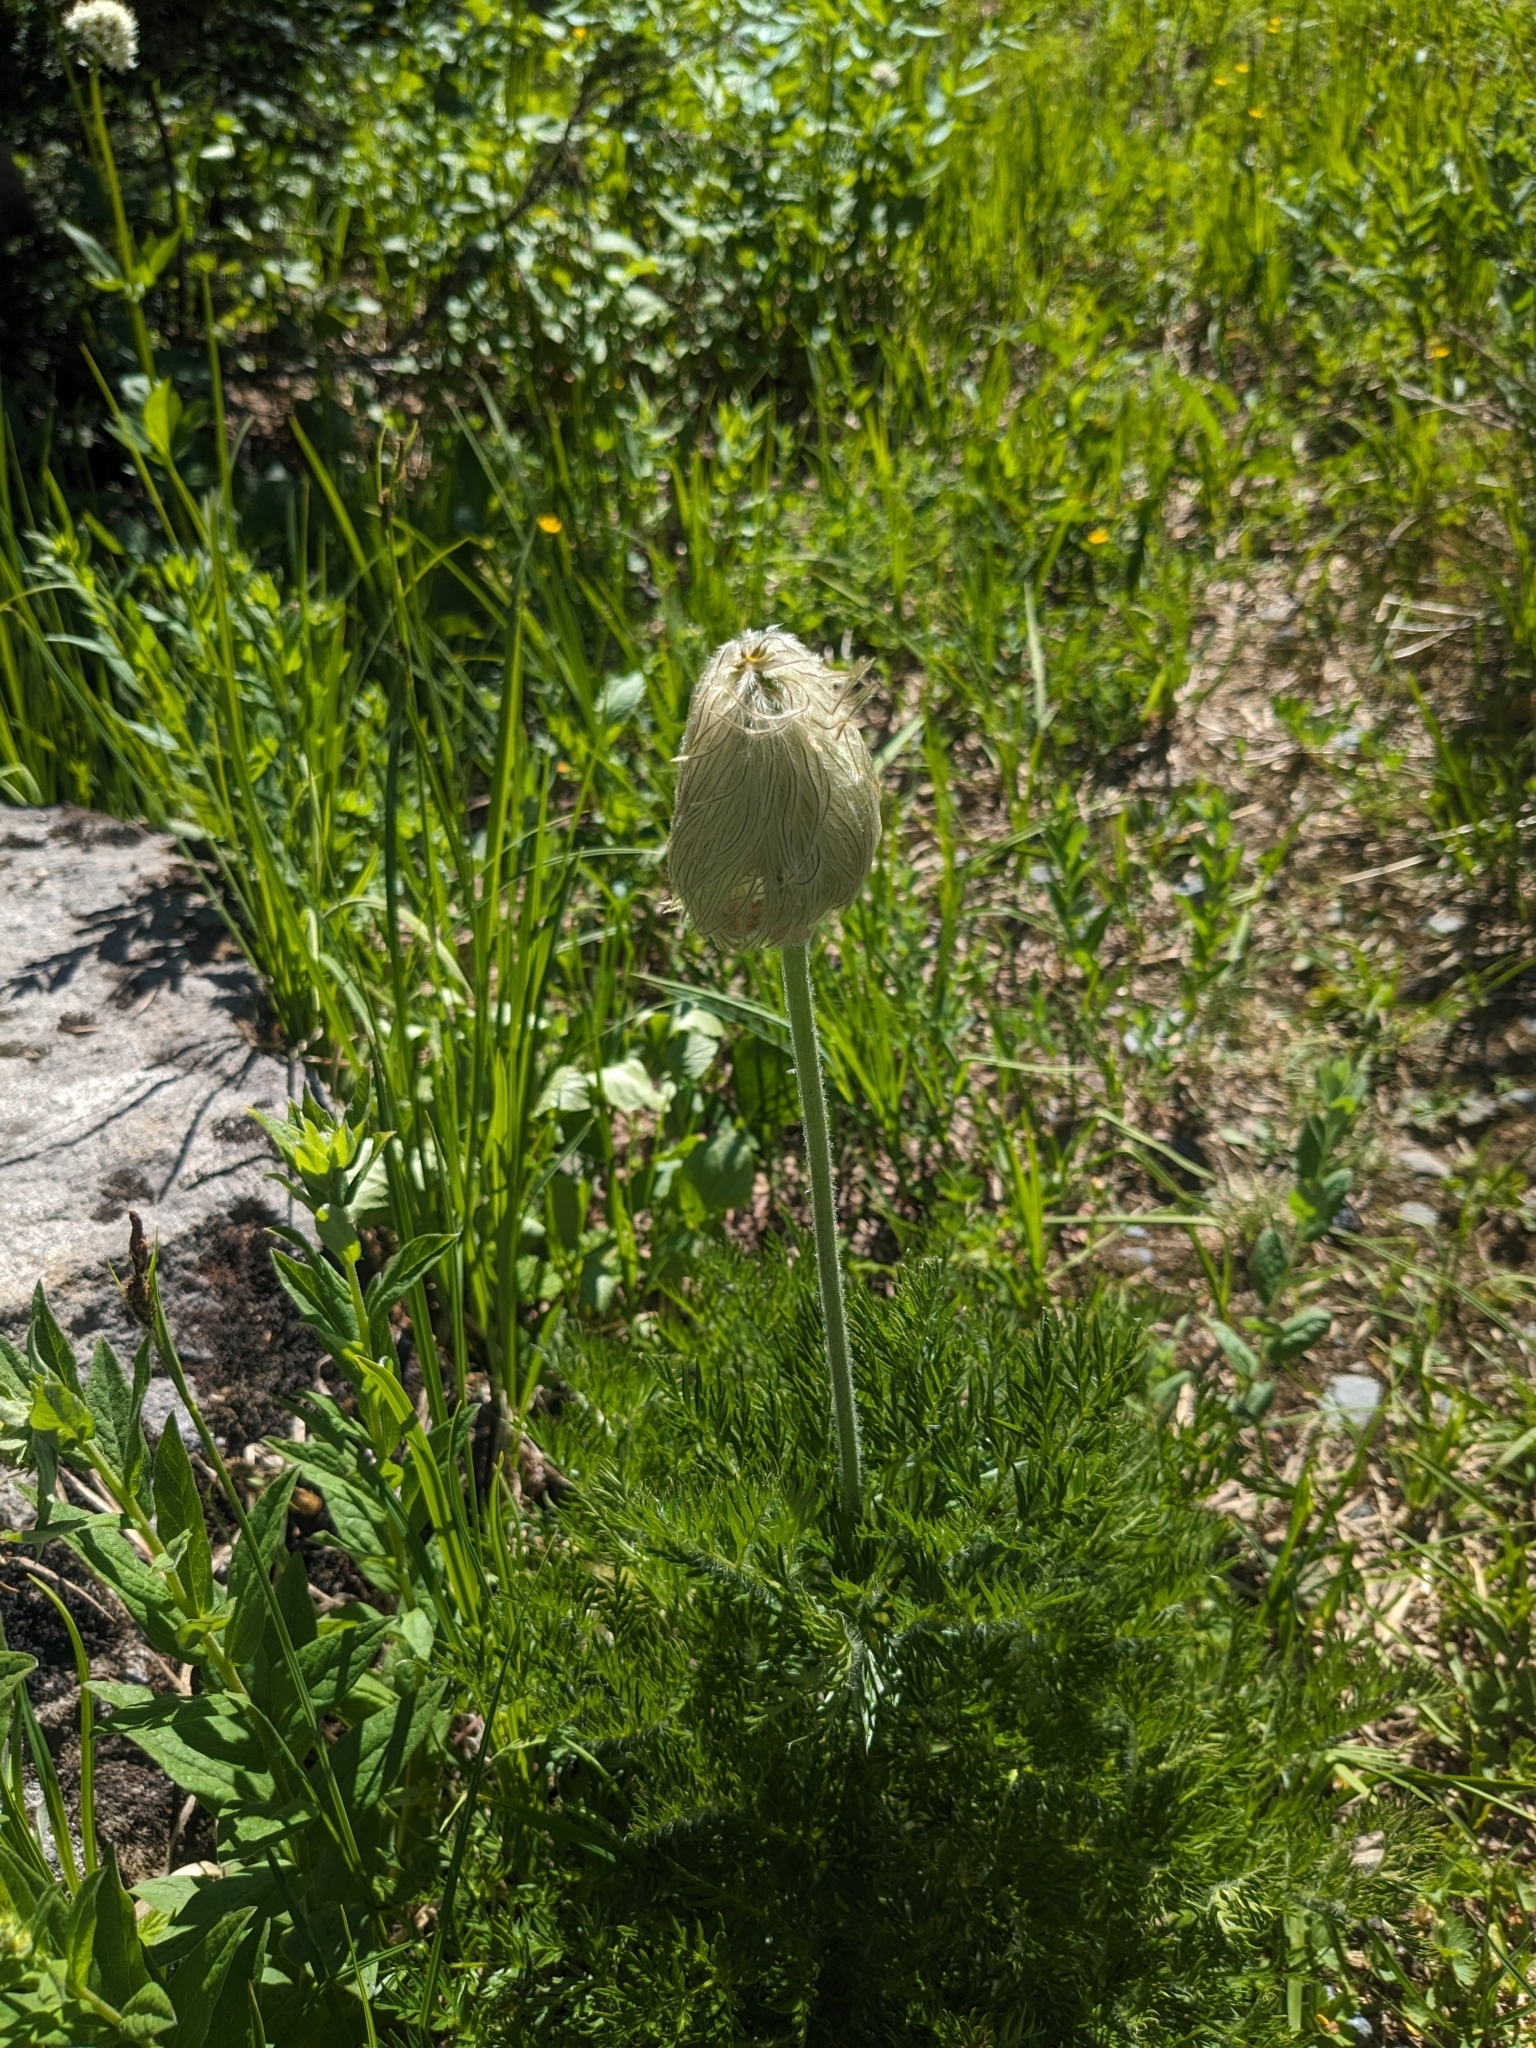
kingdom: Plantae
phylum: Tracheophyta
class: Magnoliopsida
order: Ranunculales
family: Ranunculaceae
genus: Pulsatilla
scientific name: Pulsatilla occidentalis
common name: Mountain pasqueflower
